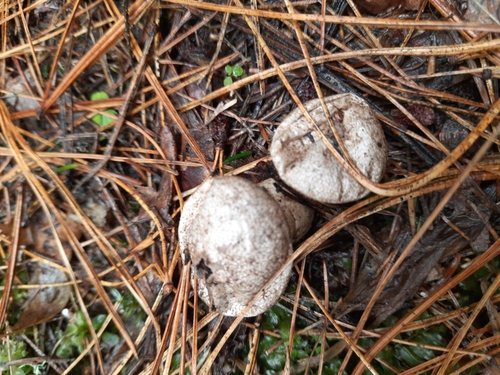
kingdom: Fungi
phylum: Basidiomycota
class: Agaricomycetes
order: Agaricales
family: Lycoperdaceae
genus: Lycoperdon
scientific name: Lycoperdon
